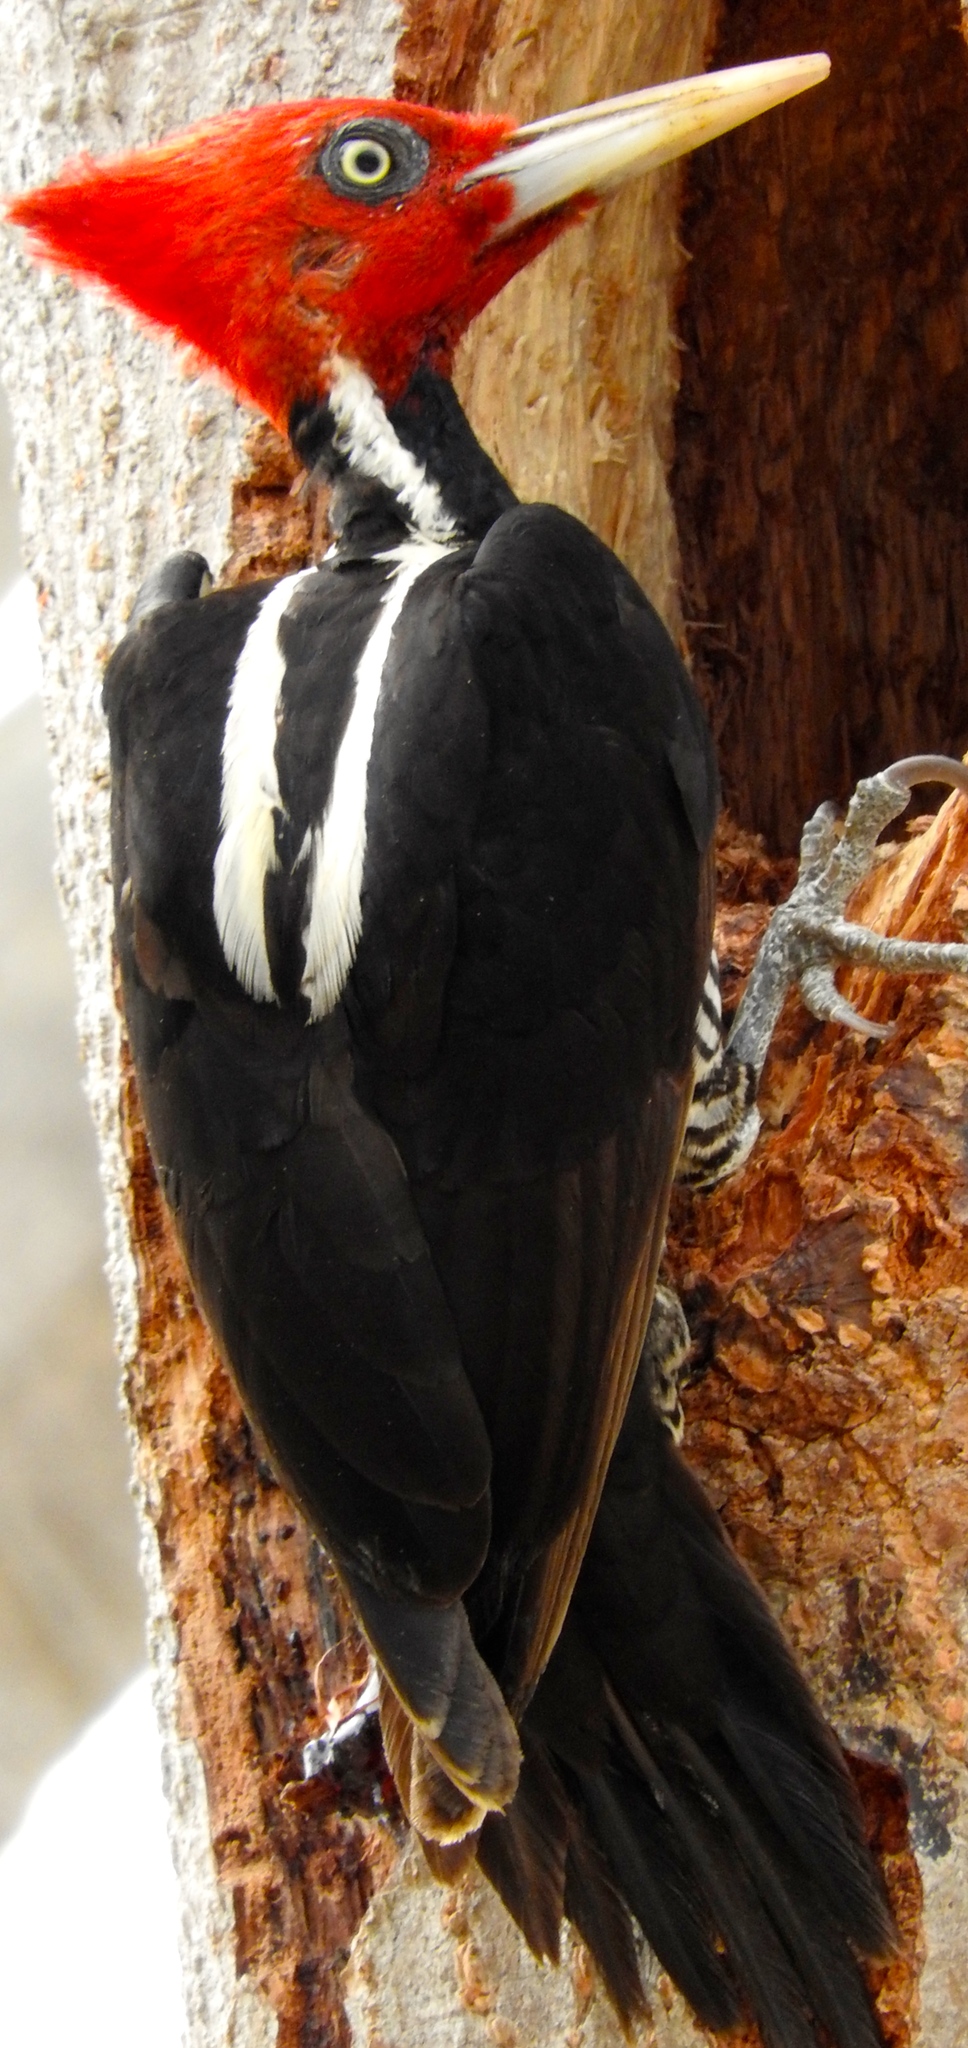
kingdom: Animalia
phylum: Chordata
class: Aves
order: Piciformes
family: Picidae
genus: Campephilus
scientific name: Campephilus guatemalensis
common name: Pale-billed woodpecker
